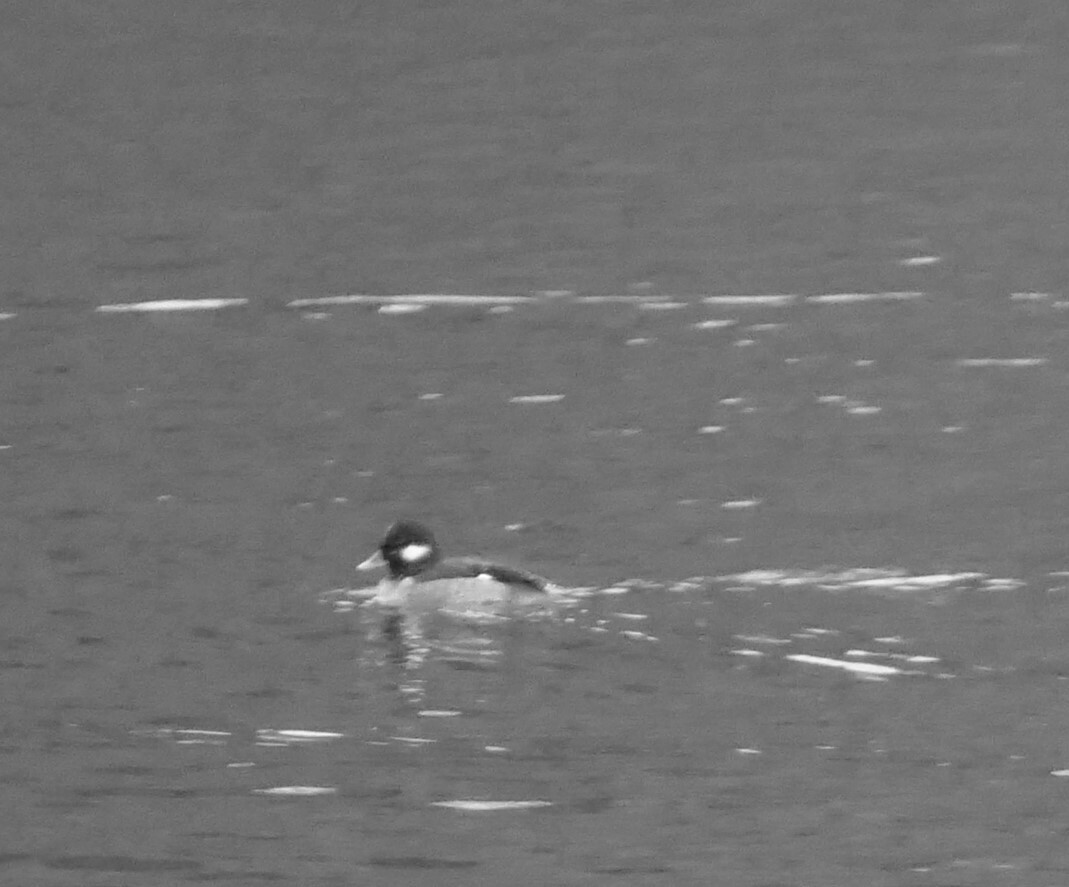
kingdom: Animalia
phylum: Chordata
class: Aves
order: Anseriformes
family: Anatidae
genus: Bucephala
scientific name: Bucephala albeola
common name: Bufflehead
